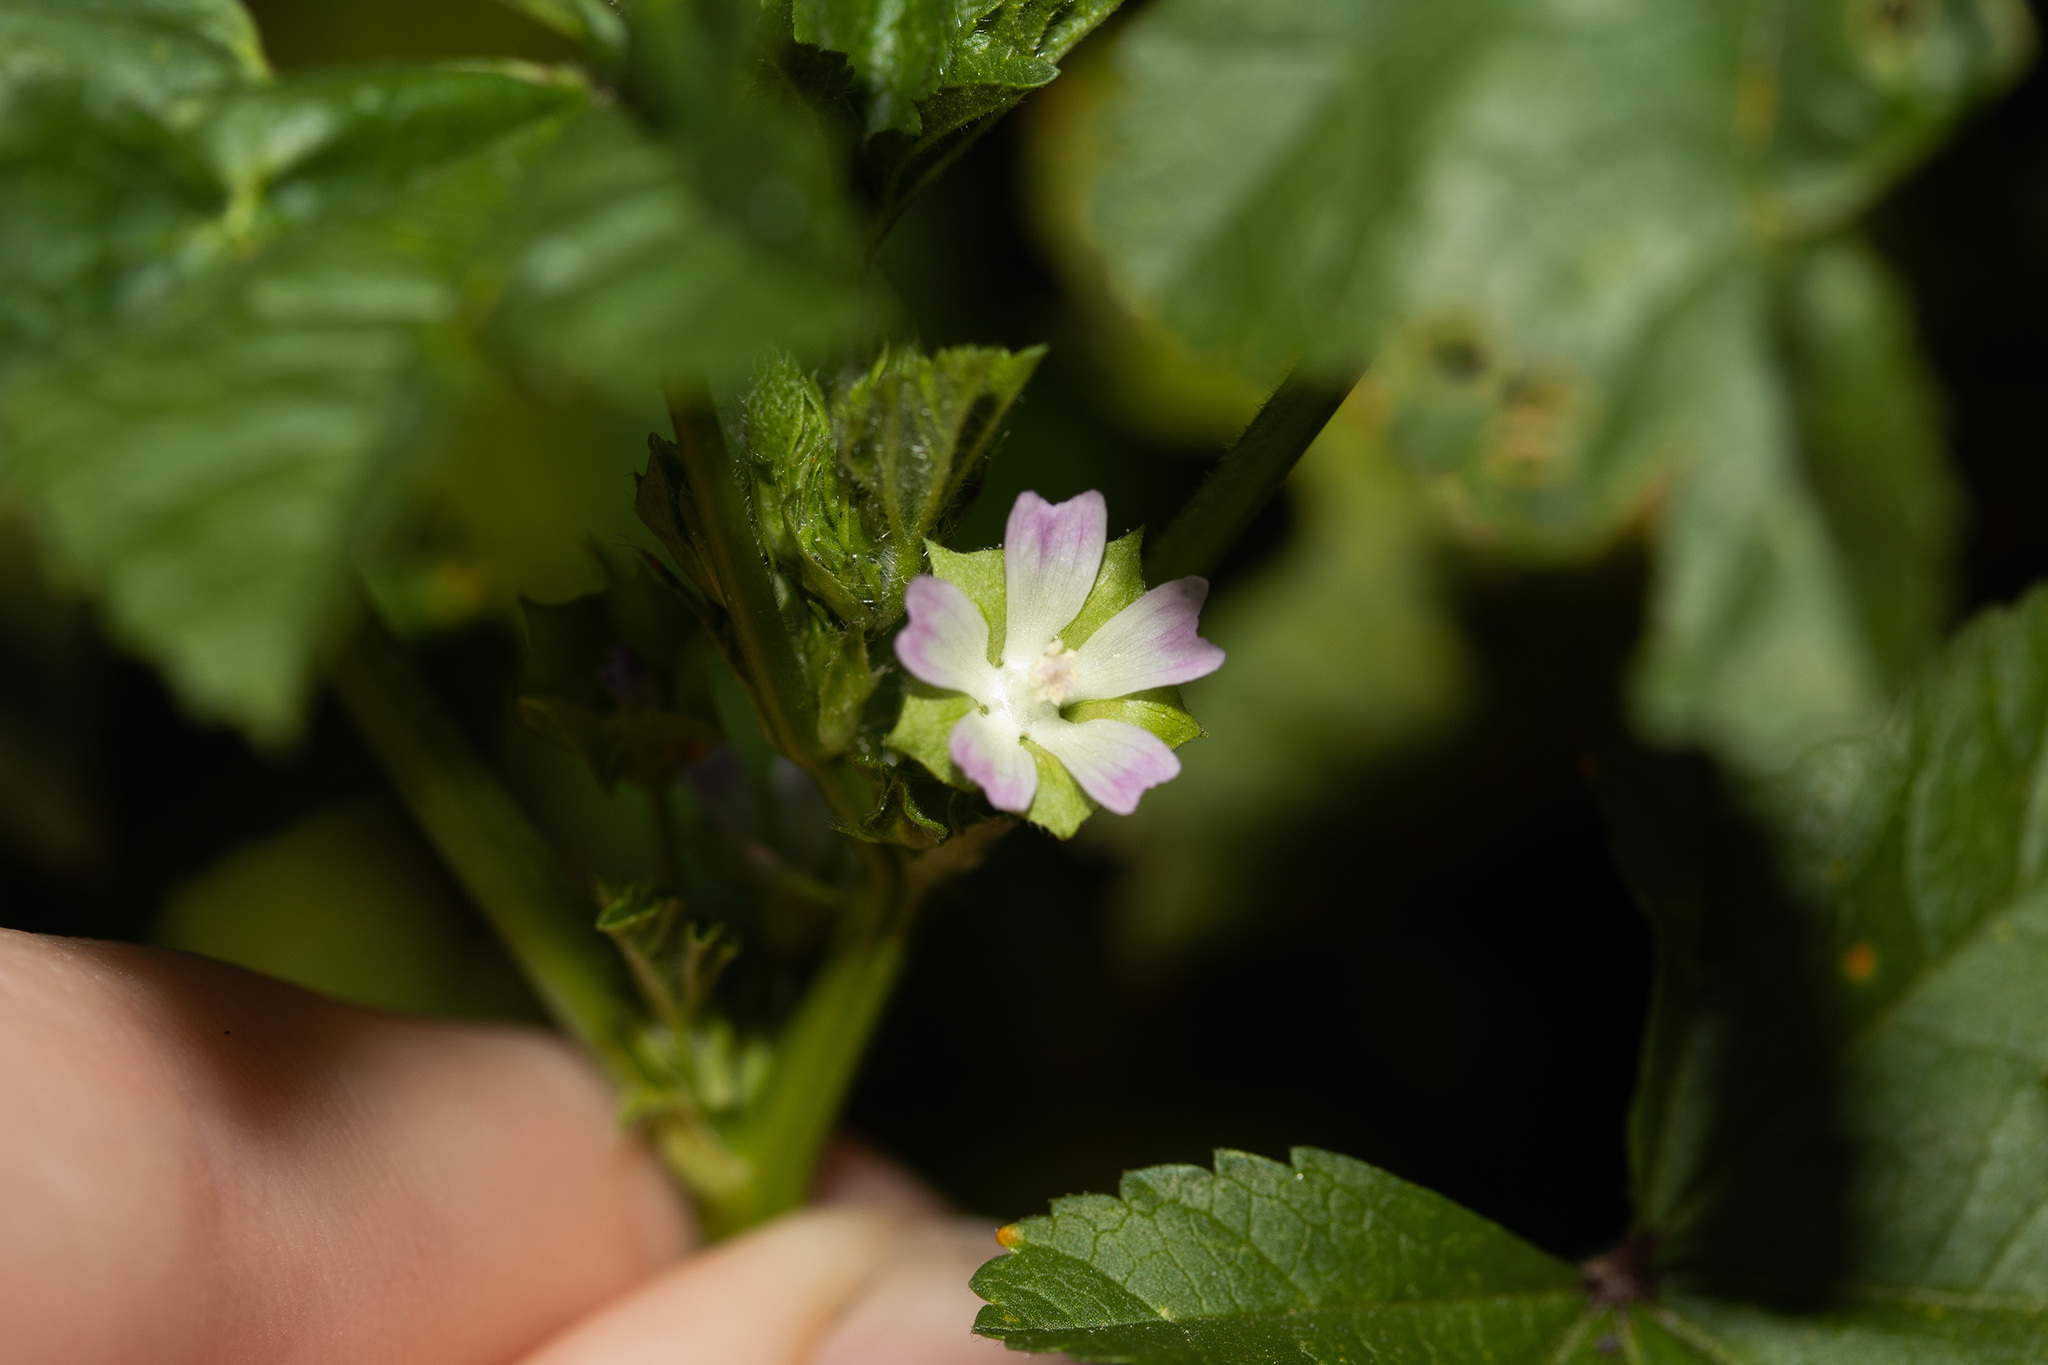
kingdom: Plantae
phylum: Tracheophyta
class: Magnoliopsida
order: Malvales
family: Malvaceae
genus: Malva
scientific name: Malva parviflora
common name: Least mallow
